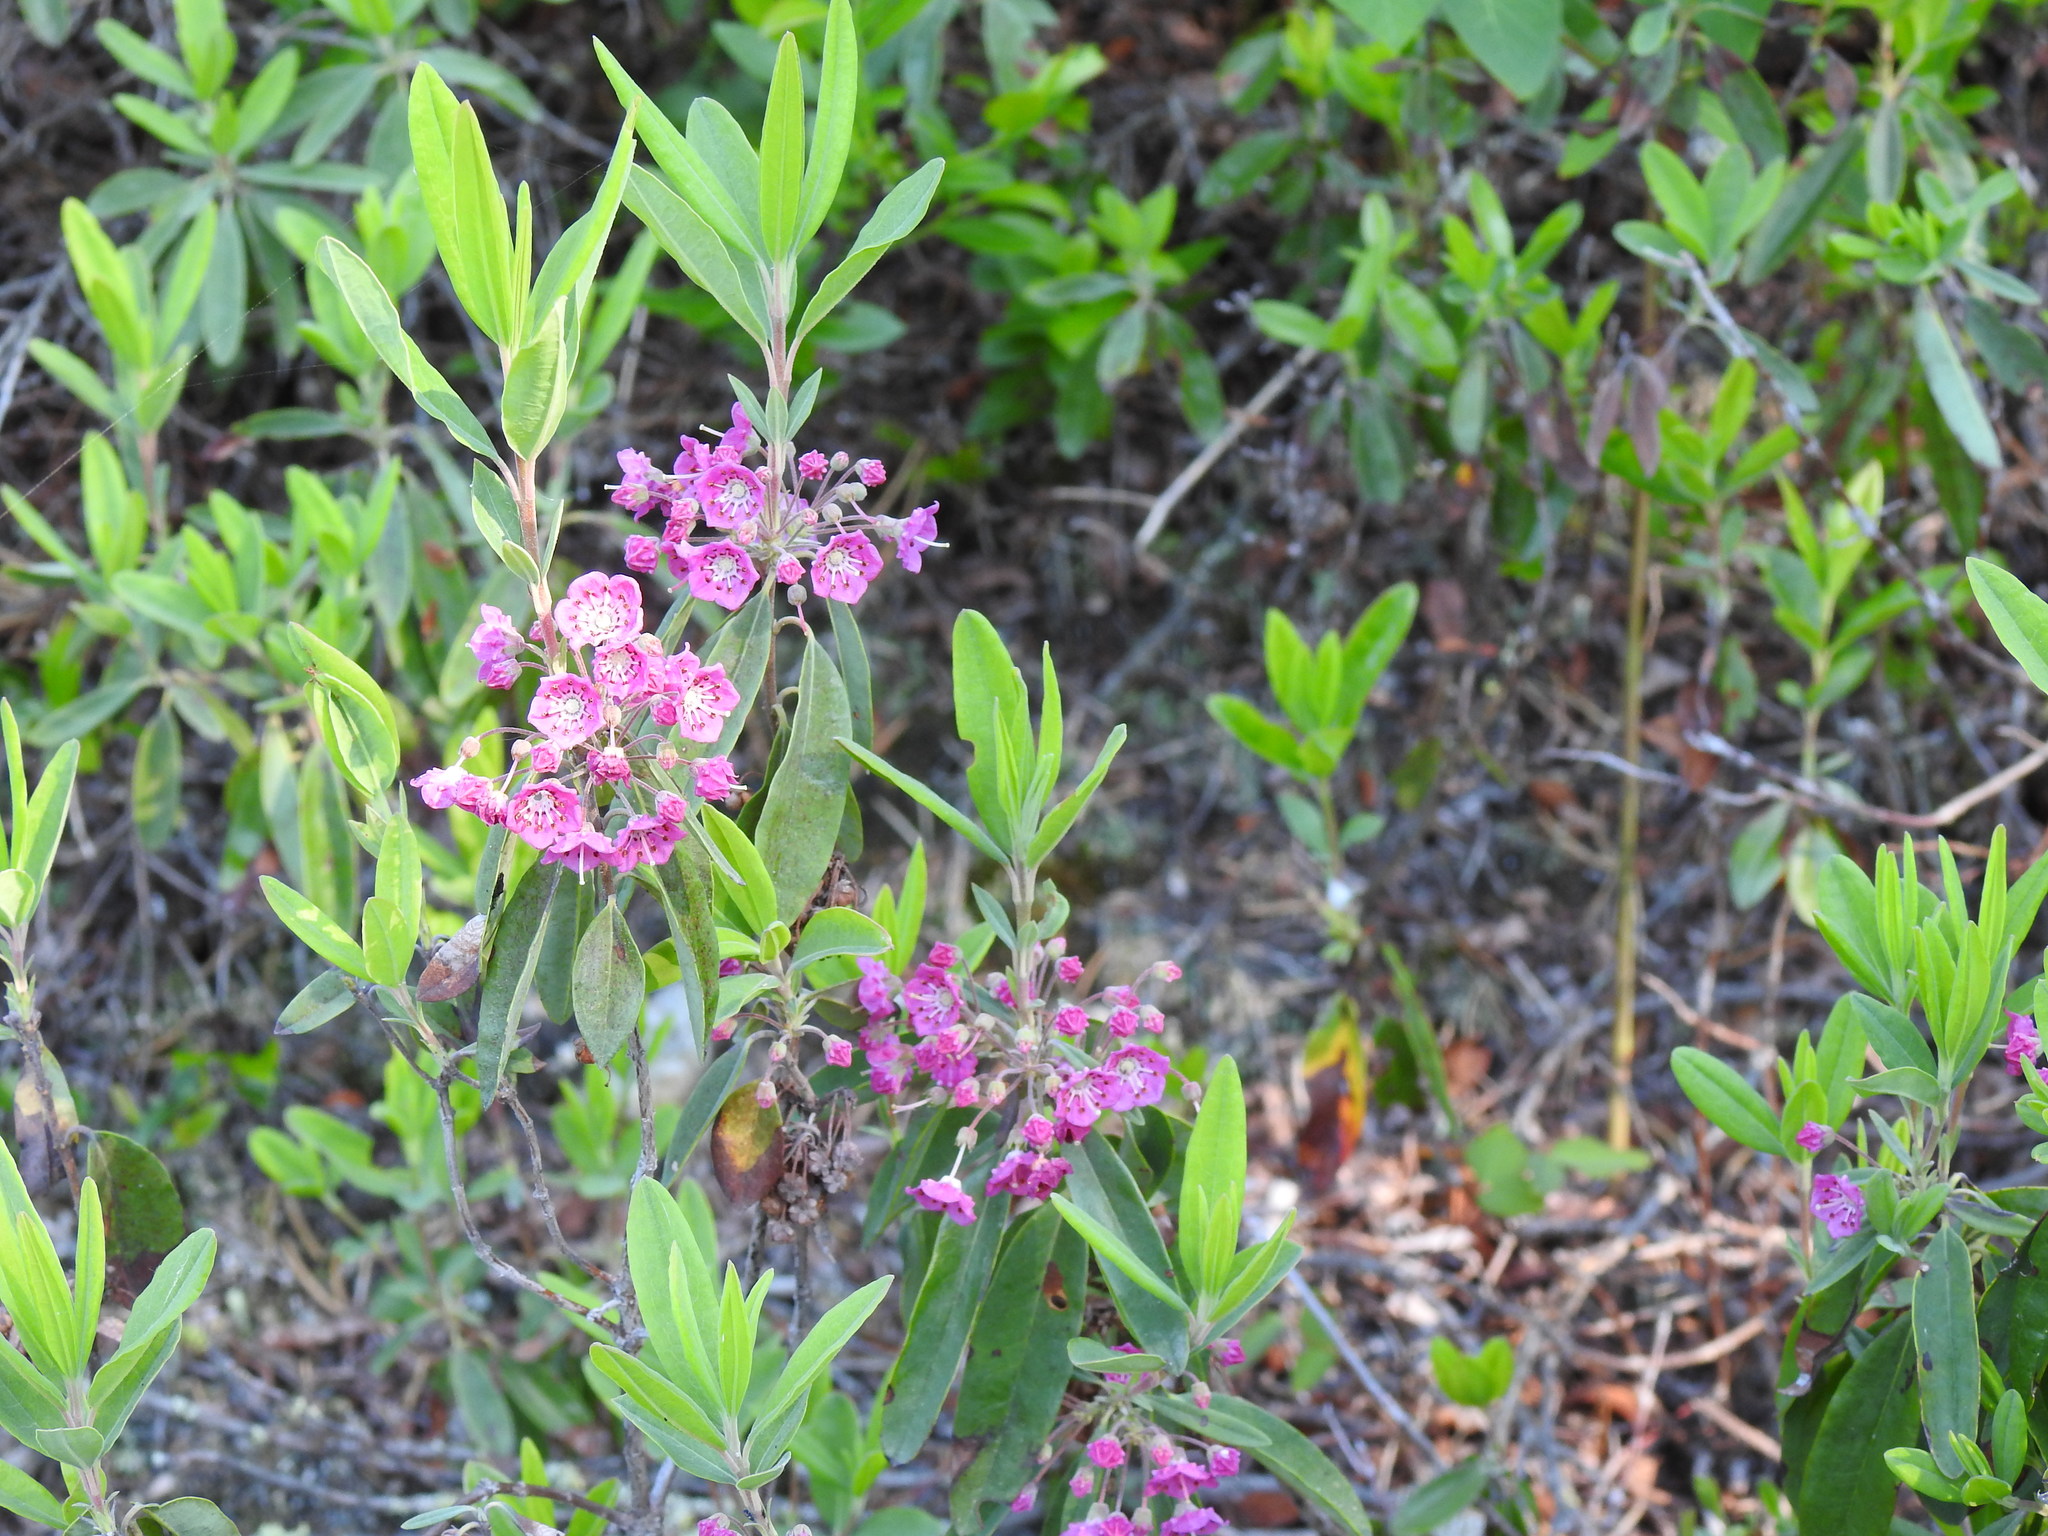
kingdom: Plantae
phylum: Tracheophyta
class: Magnoliopsida
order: Ericales
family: Ericaceae
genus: Kalmia
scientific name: Kalmia angustifolia
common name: Sheep-laurel
